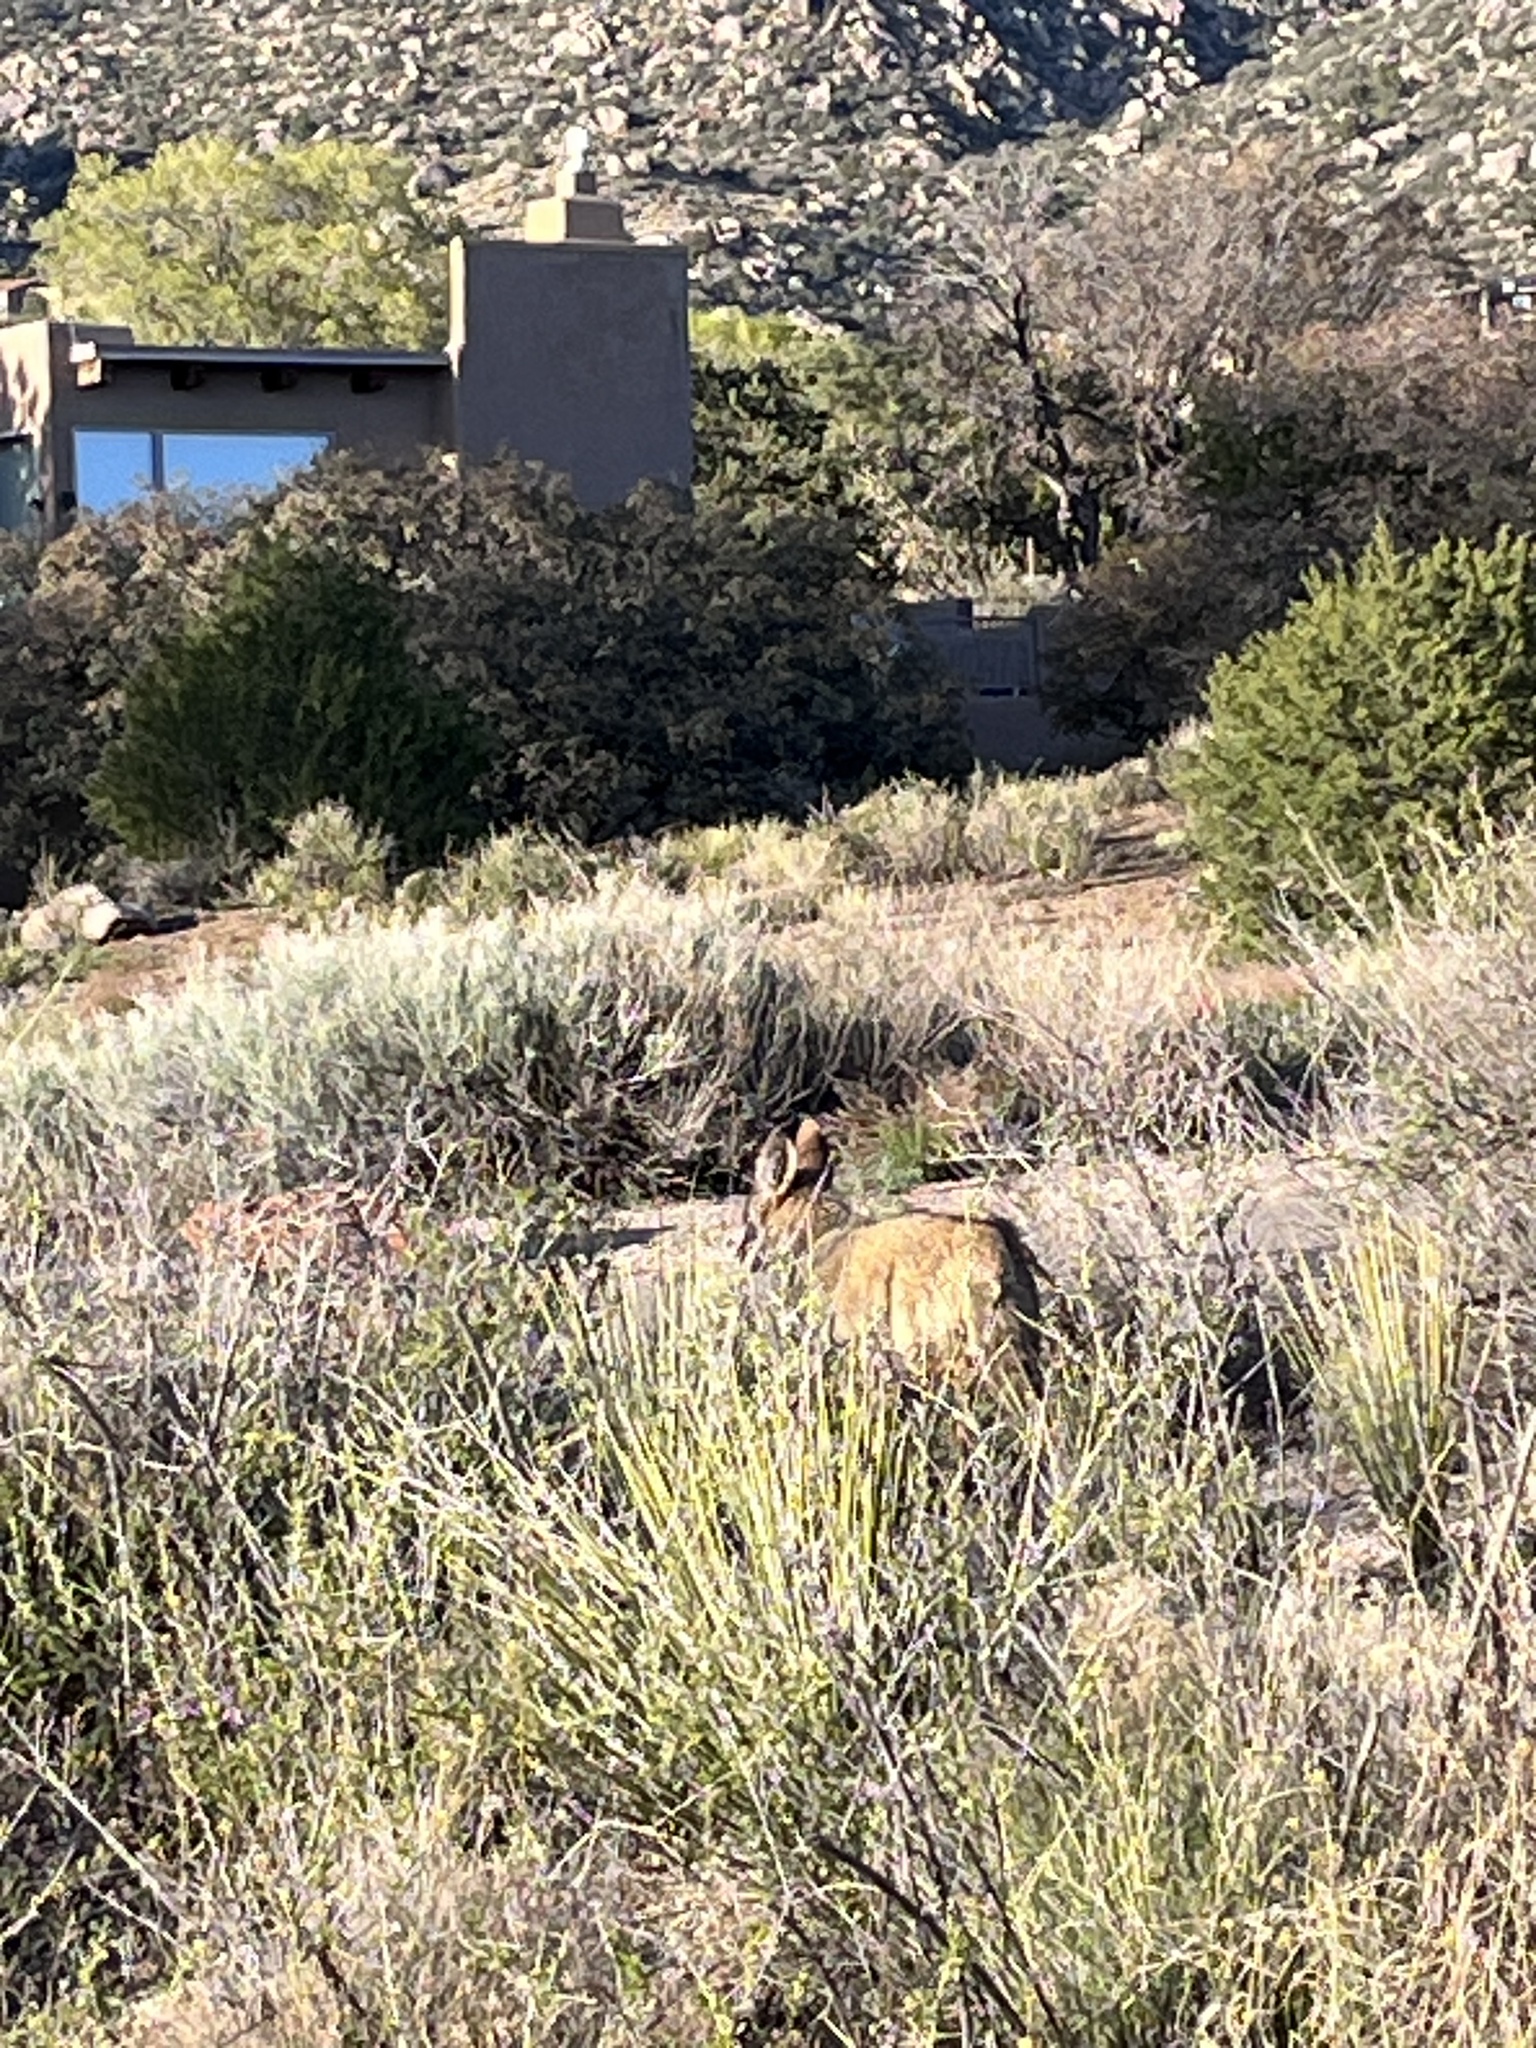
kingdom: Animalia
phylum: Chordata
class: Mammalia
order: Carnivora
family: Canidae
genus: Canis
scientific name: Canis latrans
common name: Coyote
